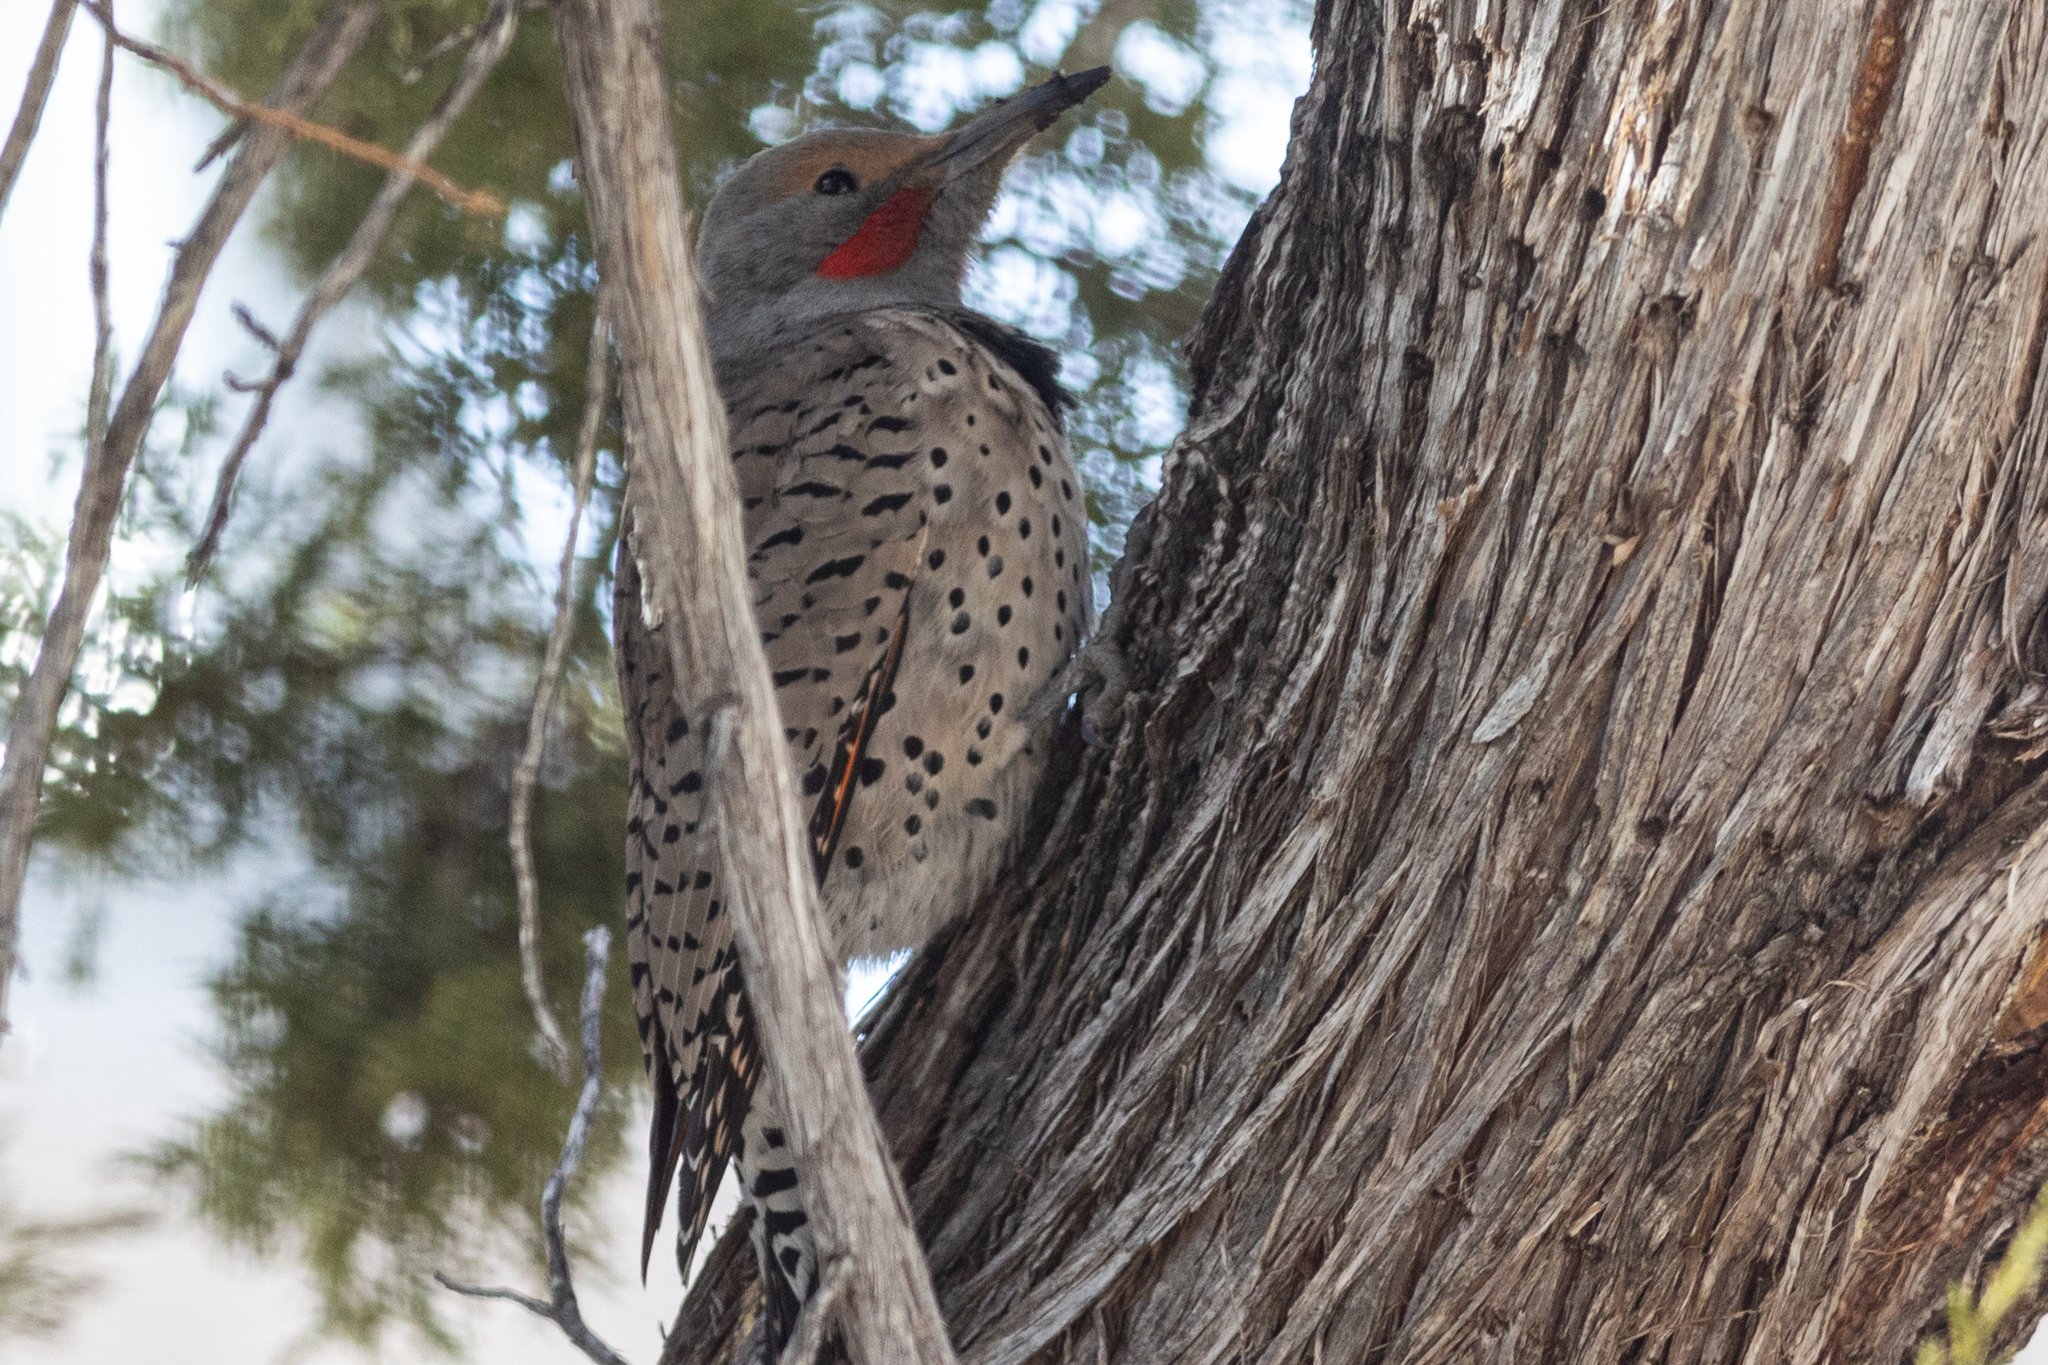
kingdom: Animalia
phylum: Chordata
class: Aves
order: Piciformes
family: Picidae
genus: Colaptes
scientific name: Colaptes auratus
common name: Northern flicker
